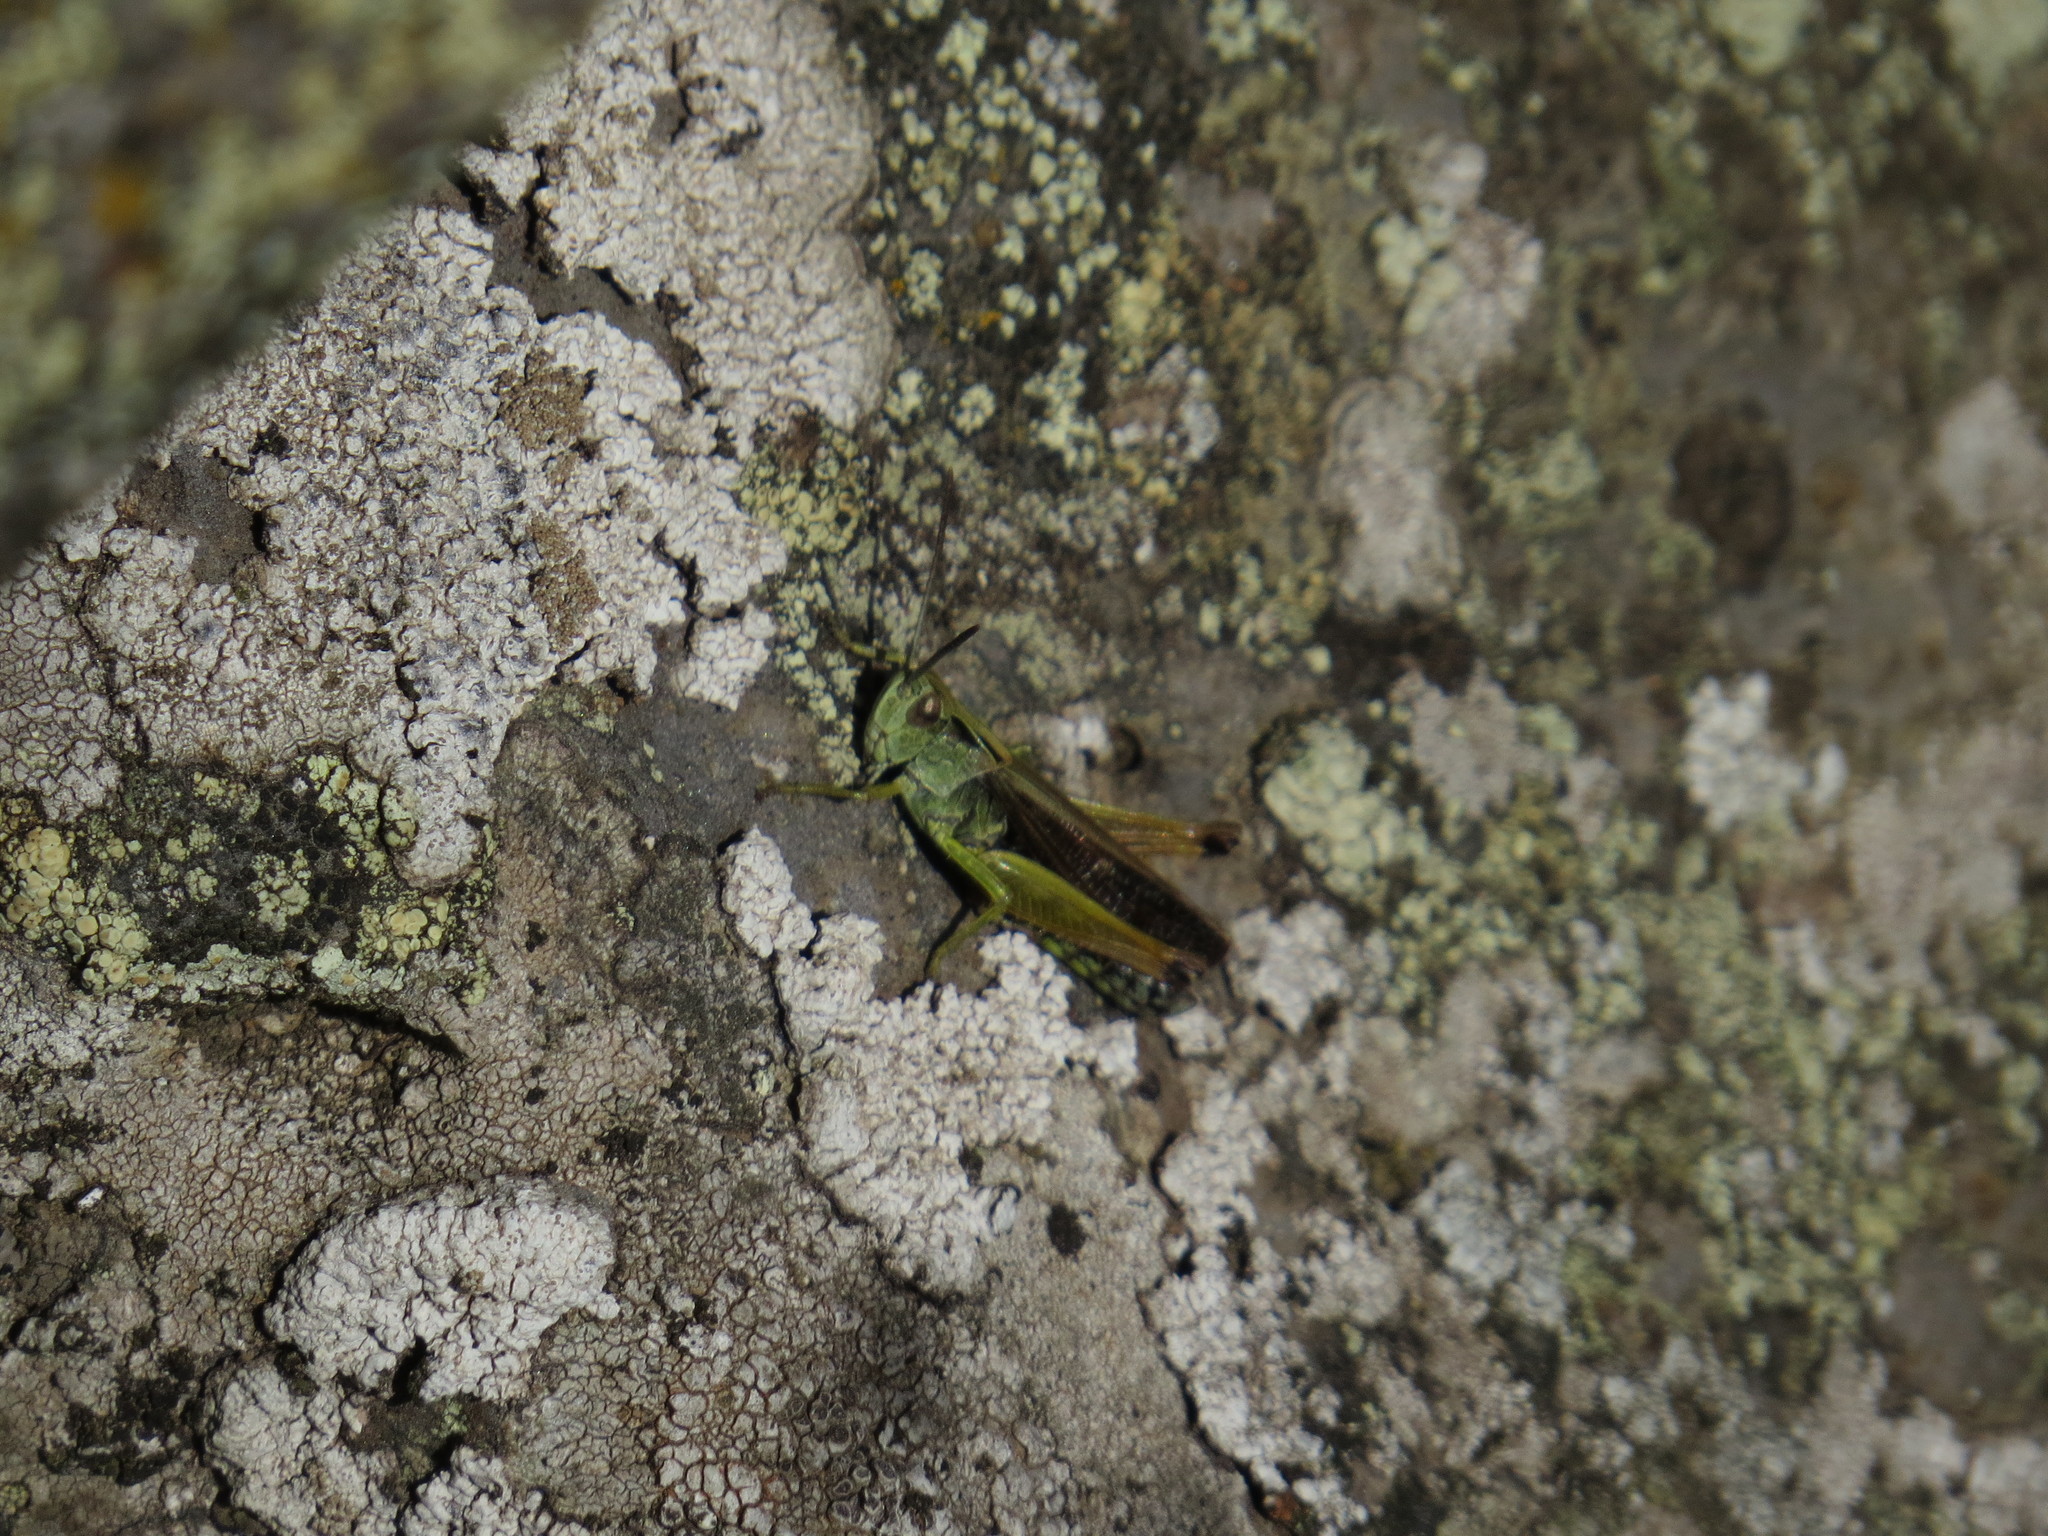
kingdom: Animalia
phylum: Arthropoda
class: Insecta
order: Orthoptera
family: Acrididae
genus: Omocestus
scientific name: Omocestus viridulus
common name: Common green grasshopper
